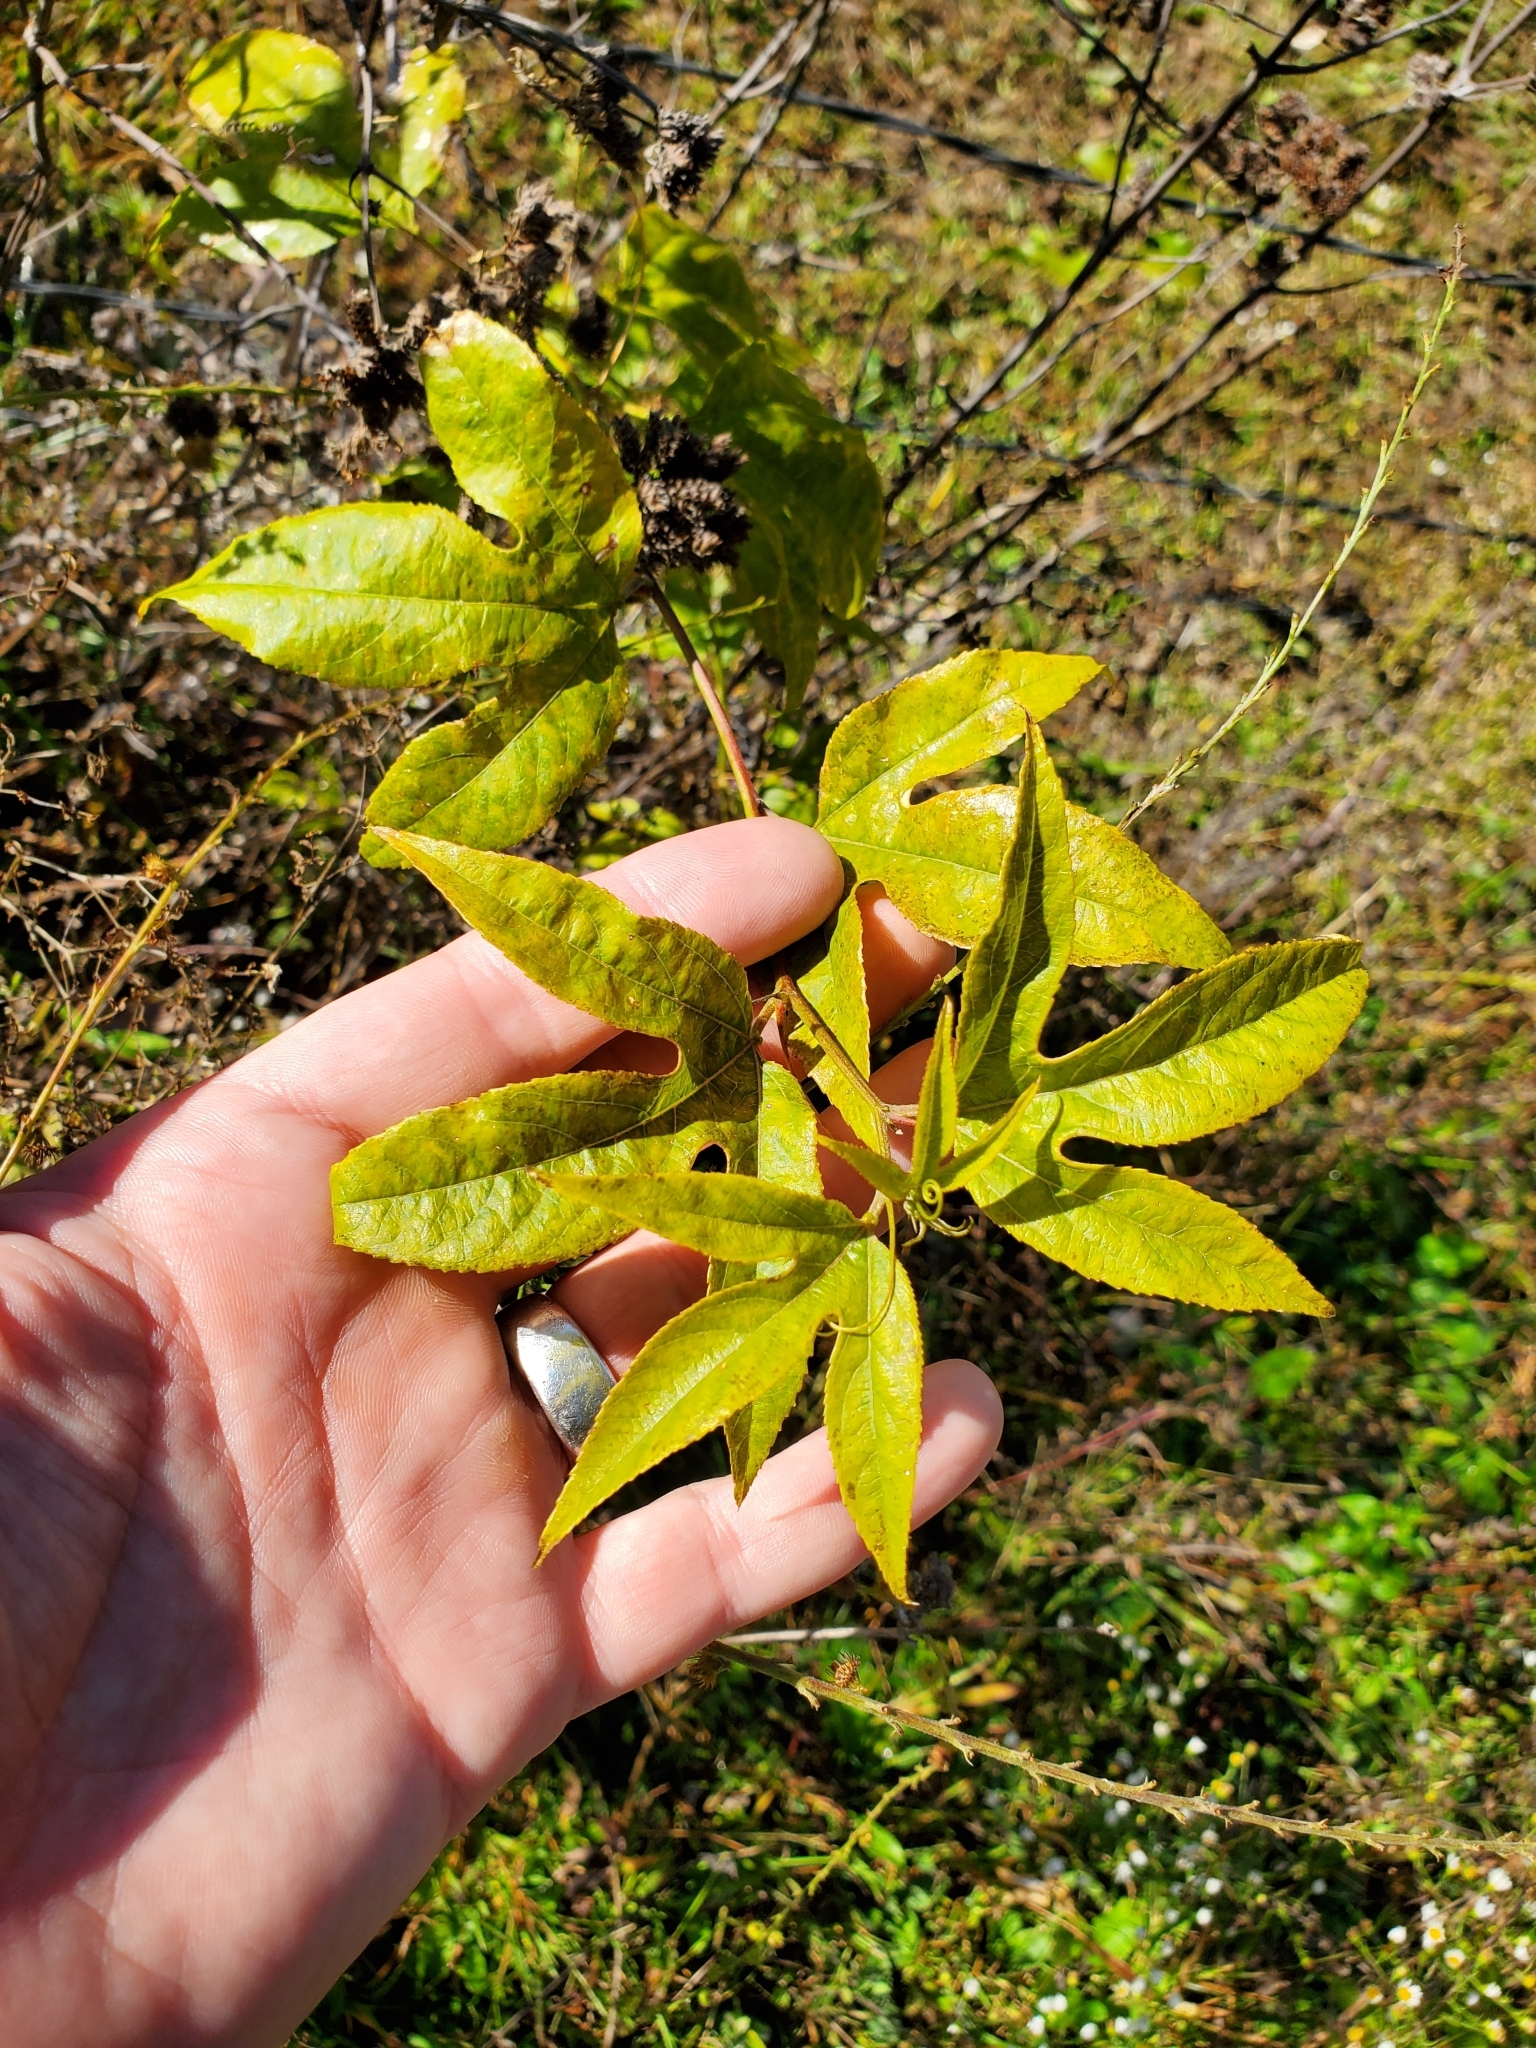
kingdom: Plantae
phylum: Tracheophyta
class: Magnoliopsida
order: Malpighiales
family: Passifloraceae
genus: Passiflora
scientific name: Passiflora incarnata
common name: Apricot-vine
